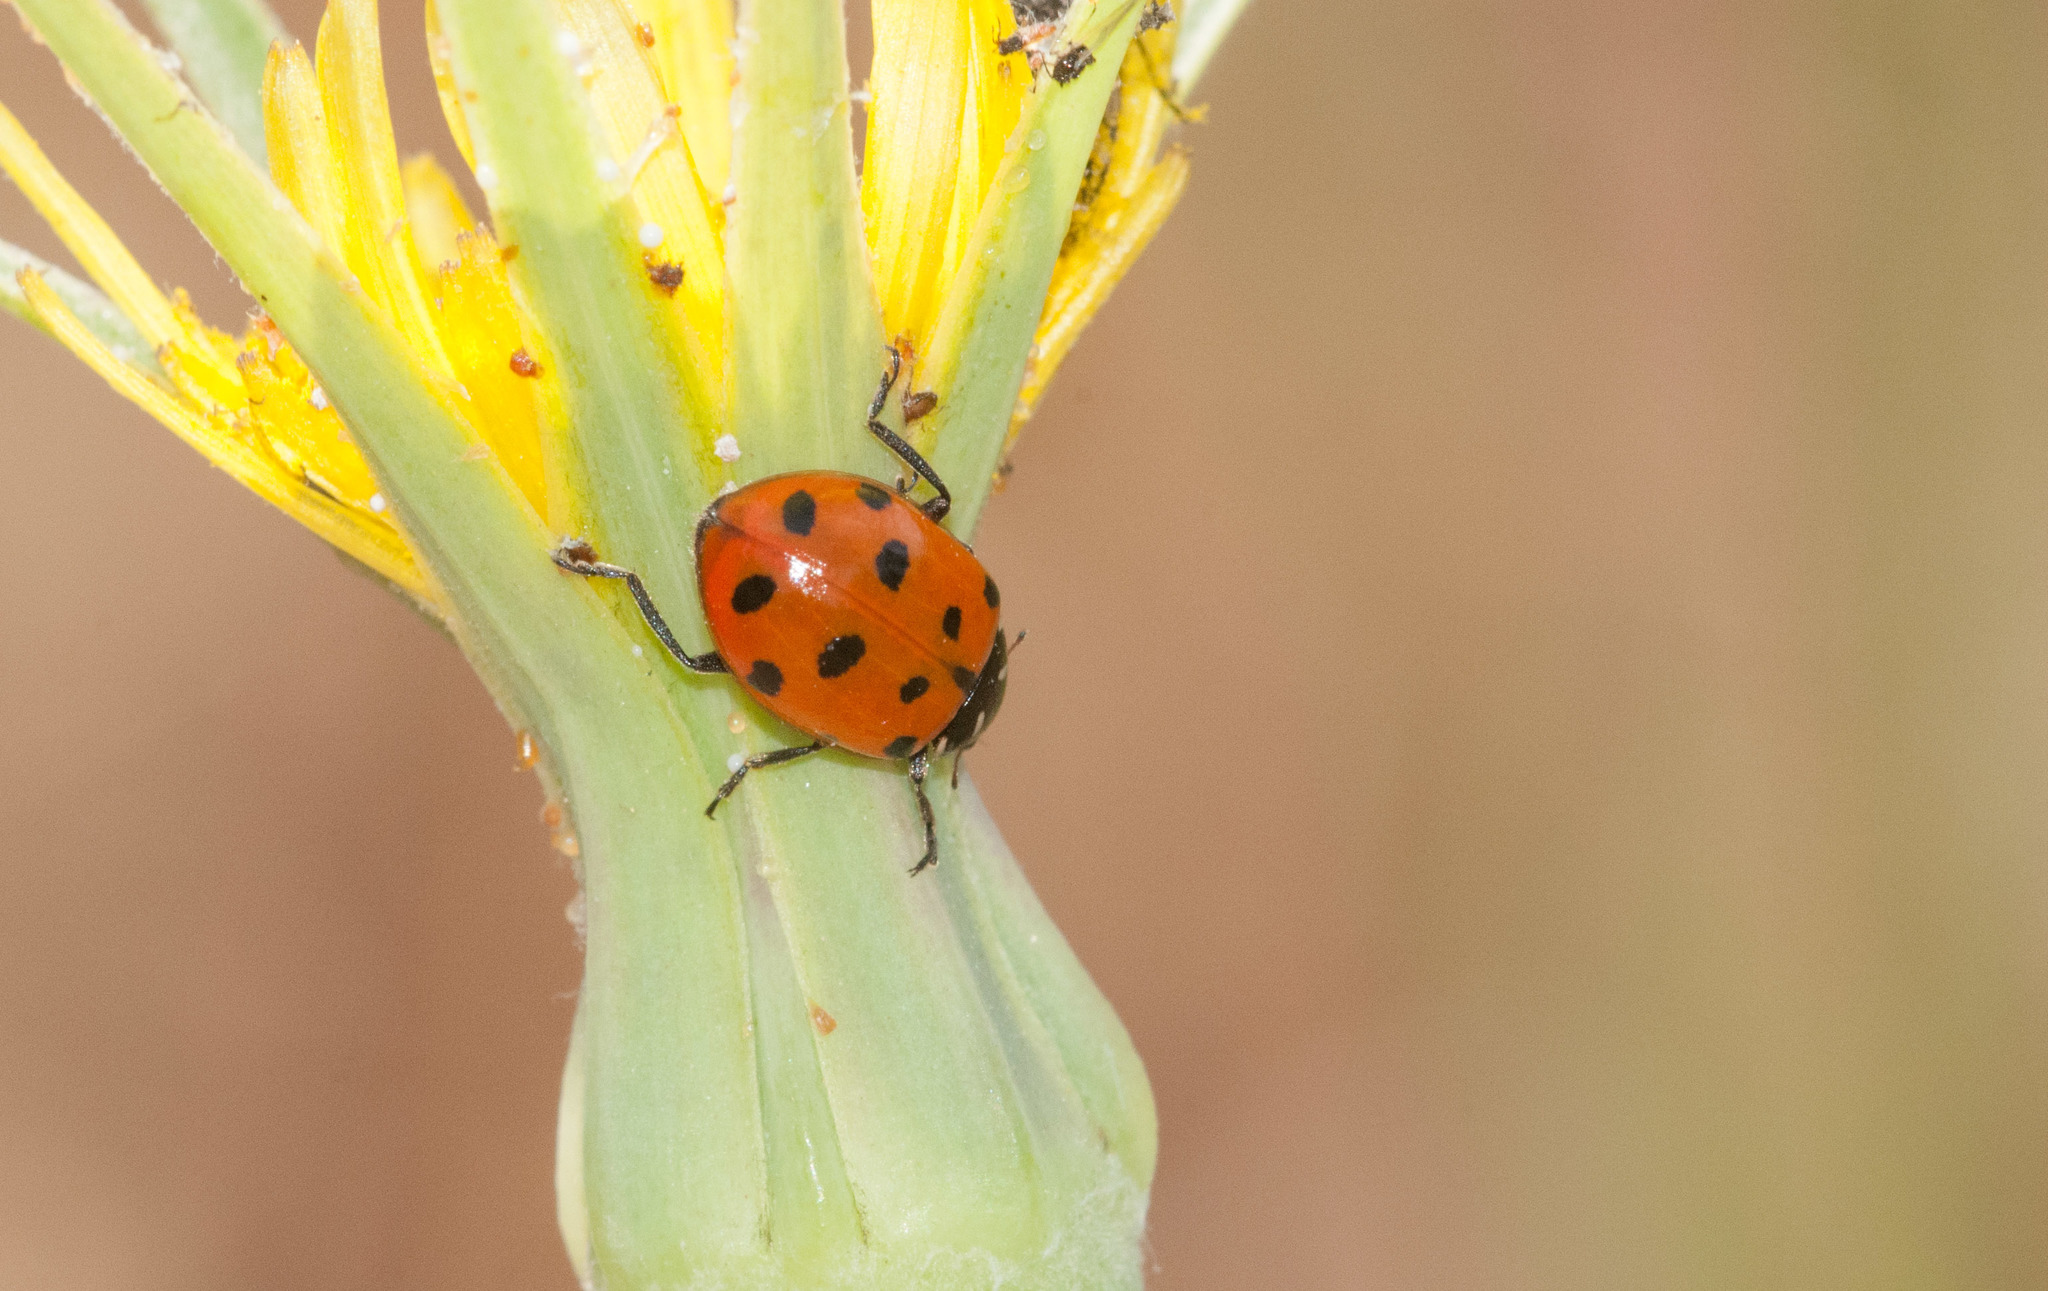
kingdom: Animalia
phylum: Arthropoda
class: Insecta
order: Coleoptera
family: Coccinellidae
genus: Hippodamia
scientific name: Hippodamia convergens
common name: Convergent lady beetle
